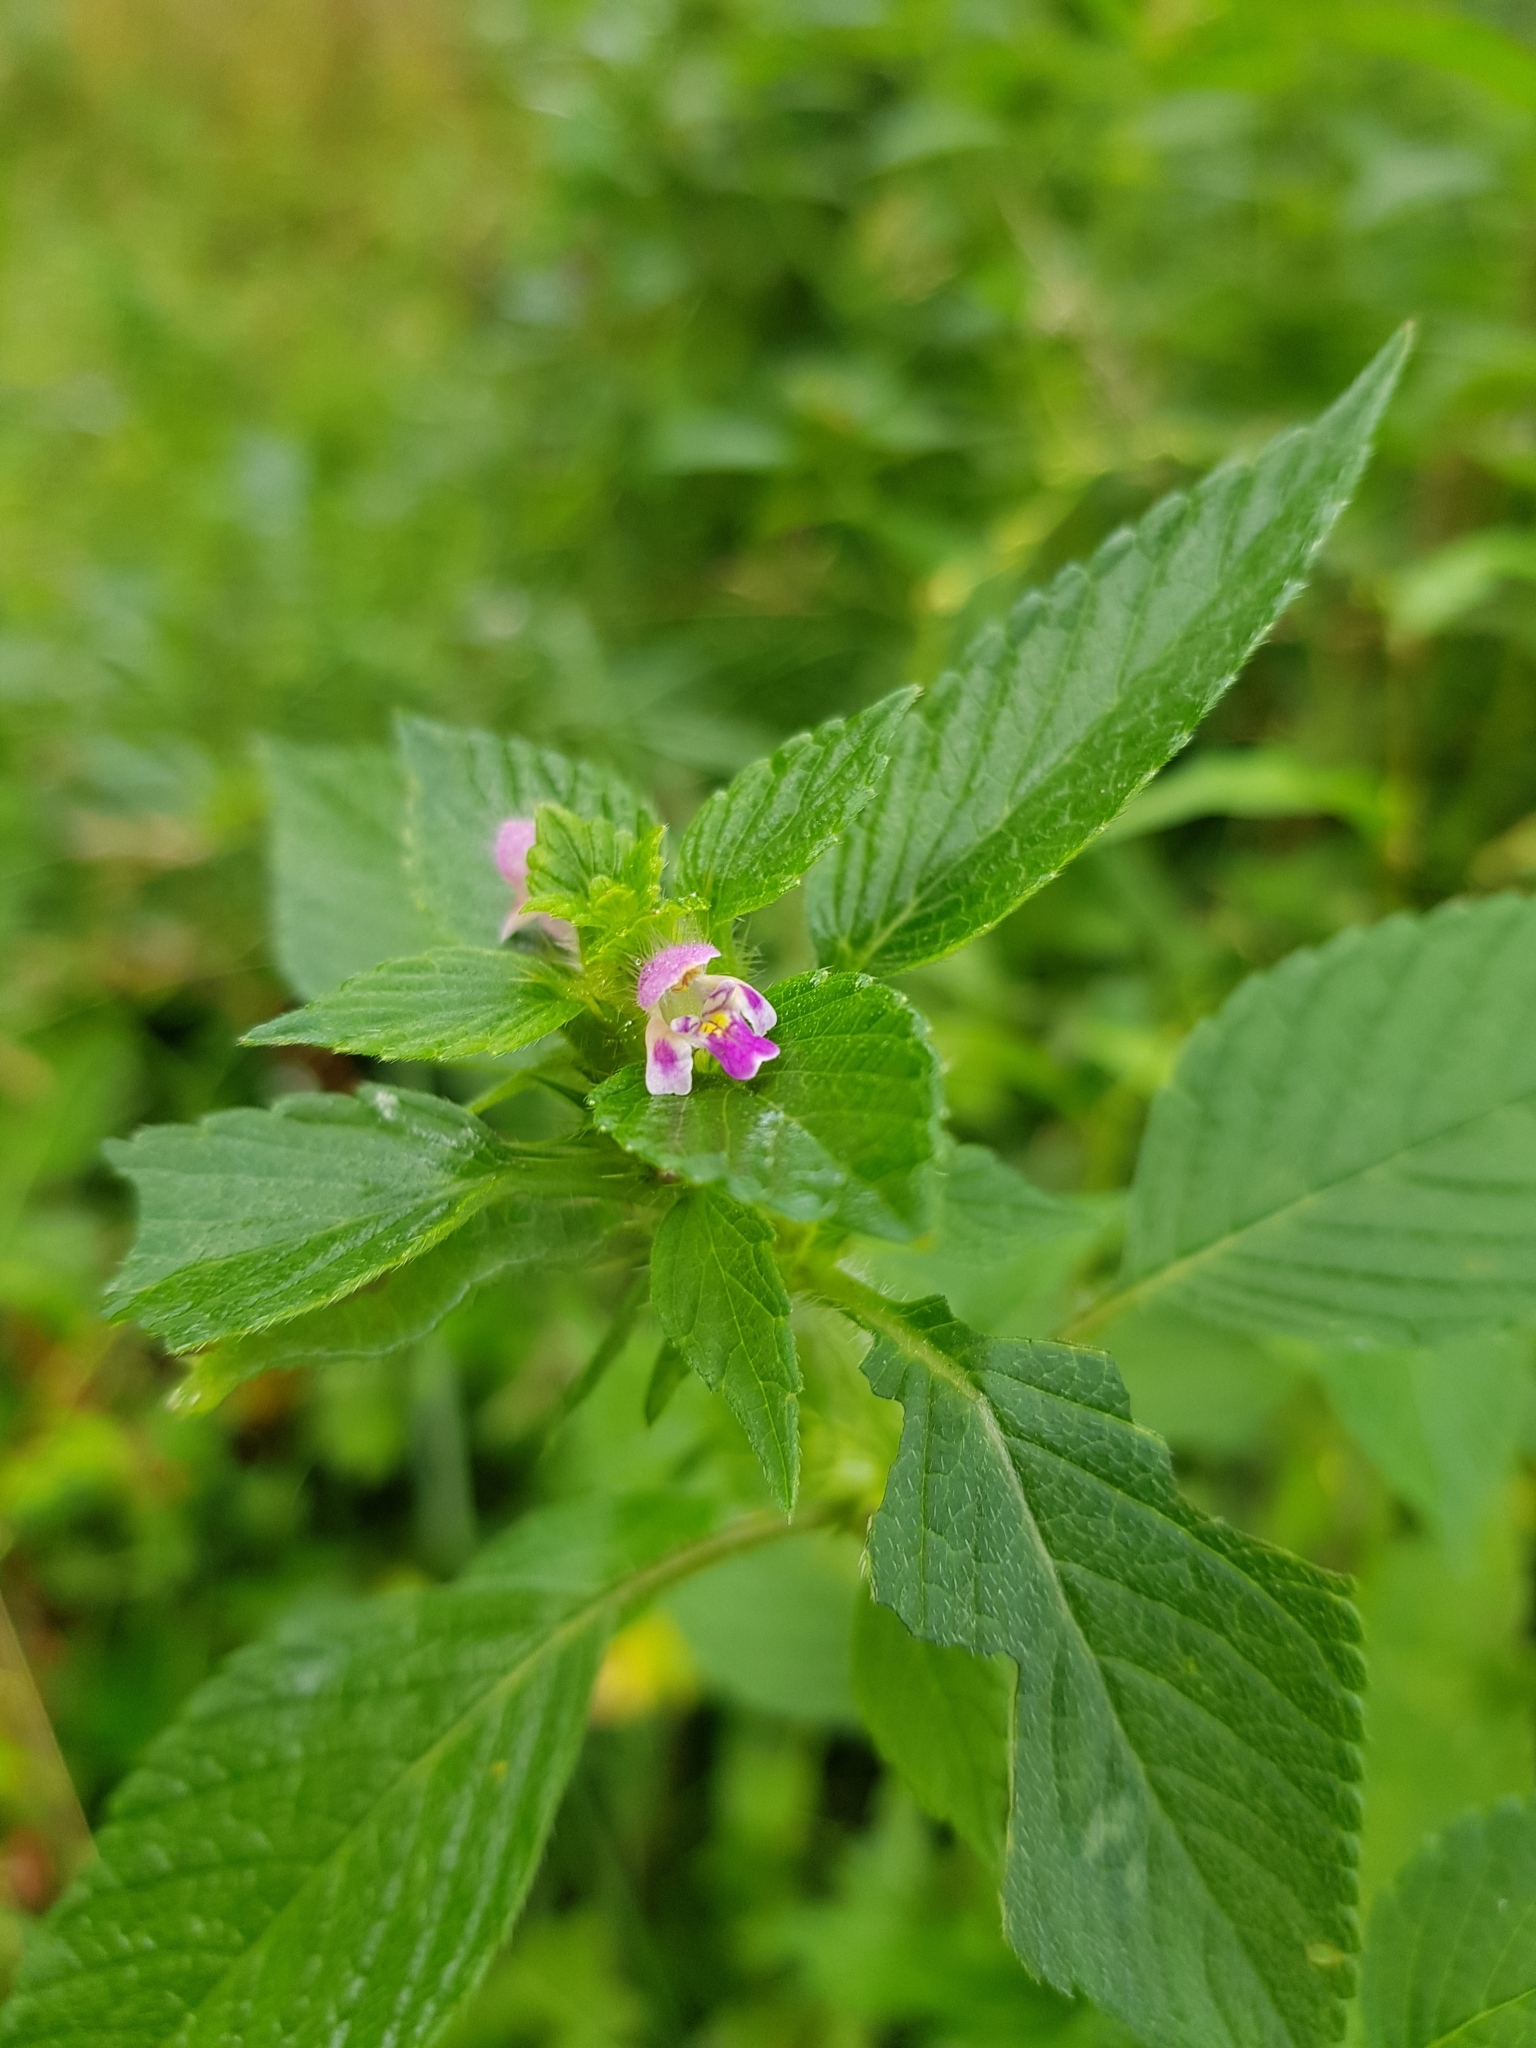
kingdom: Plantae
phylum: Tracheophyta
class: Magnoliopsida
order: Lamiales
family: Lamiaceae
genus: Galeopsis
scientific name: Galeopsis bifida
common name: Bifid hemp-nettle
